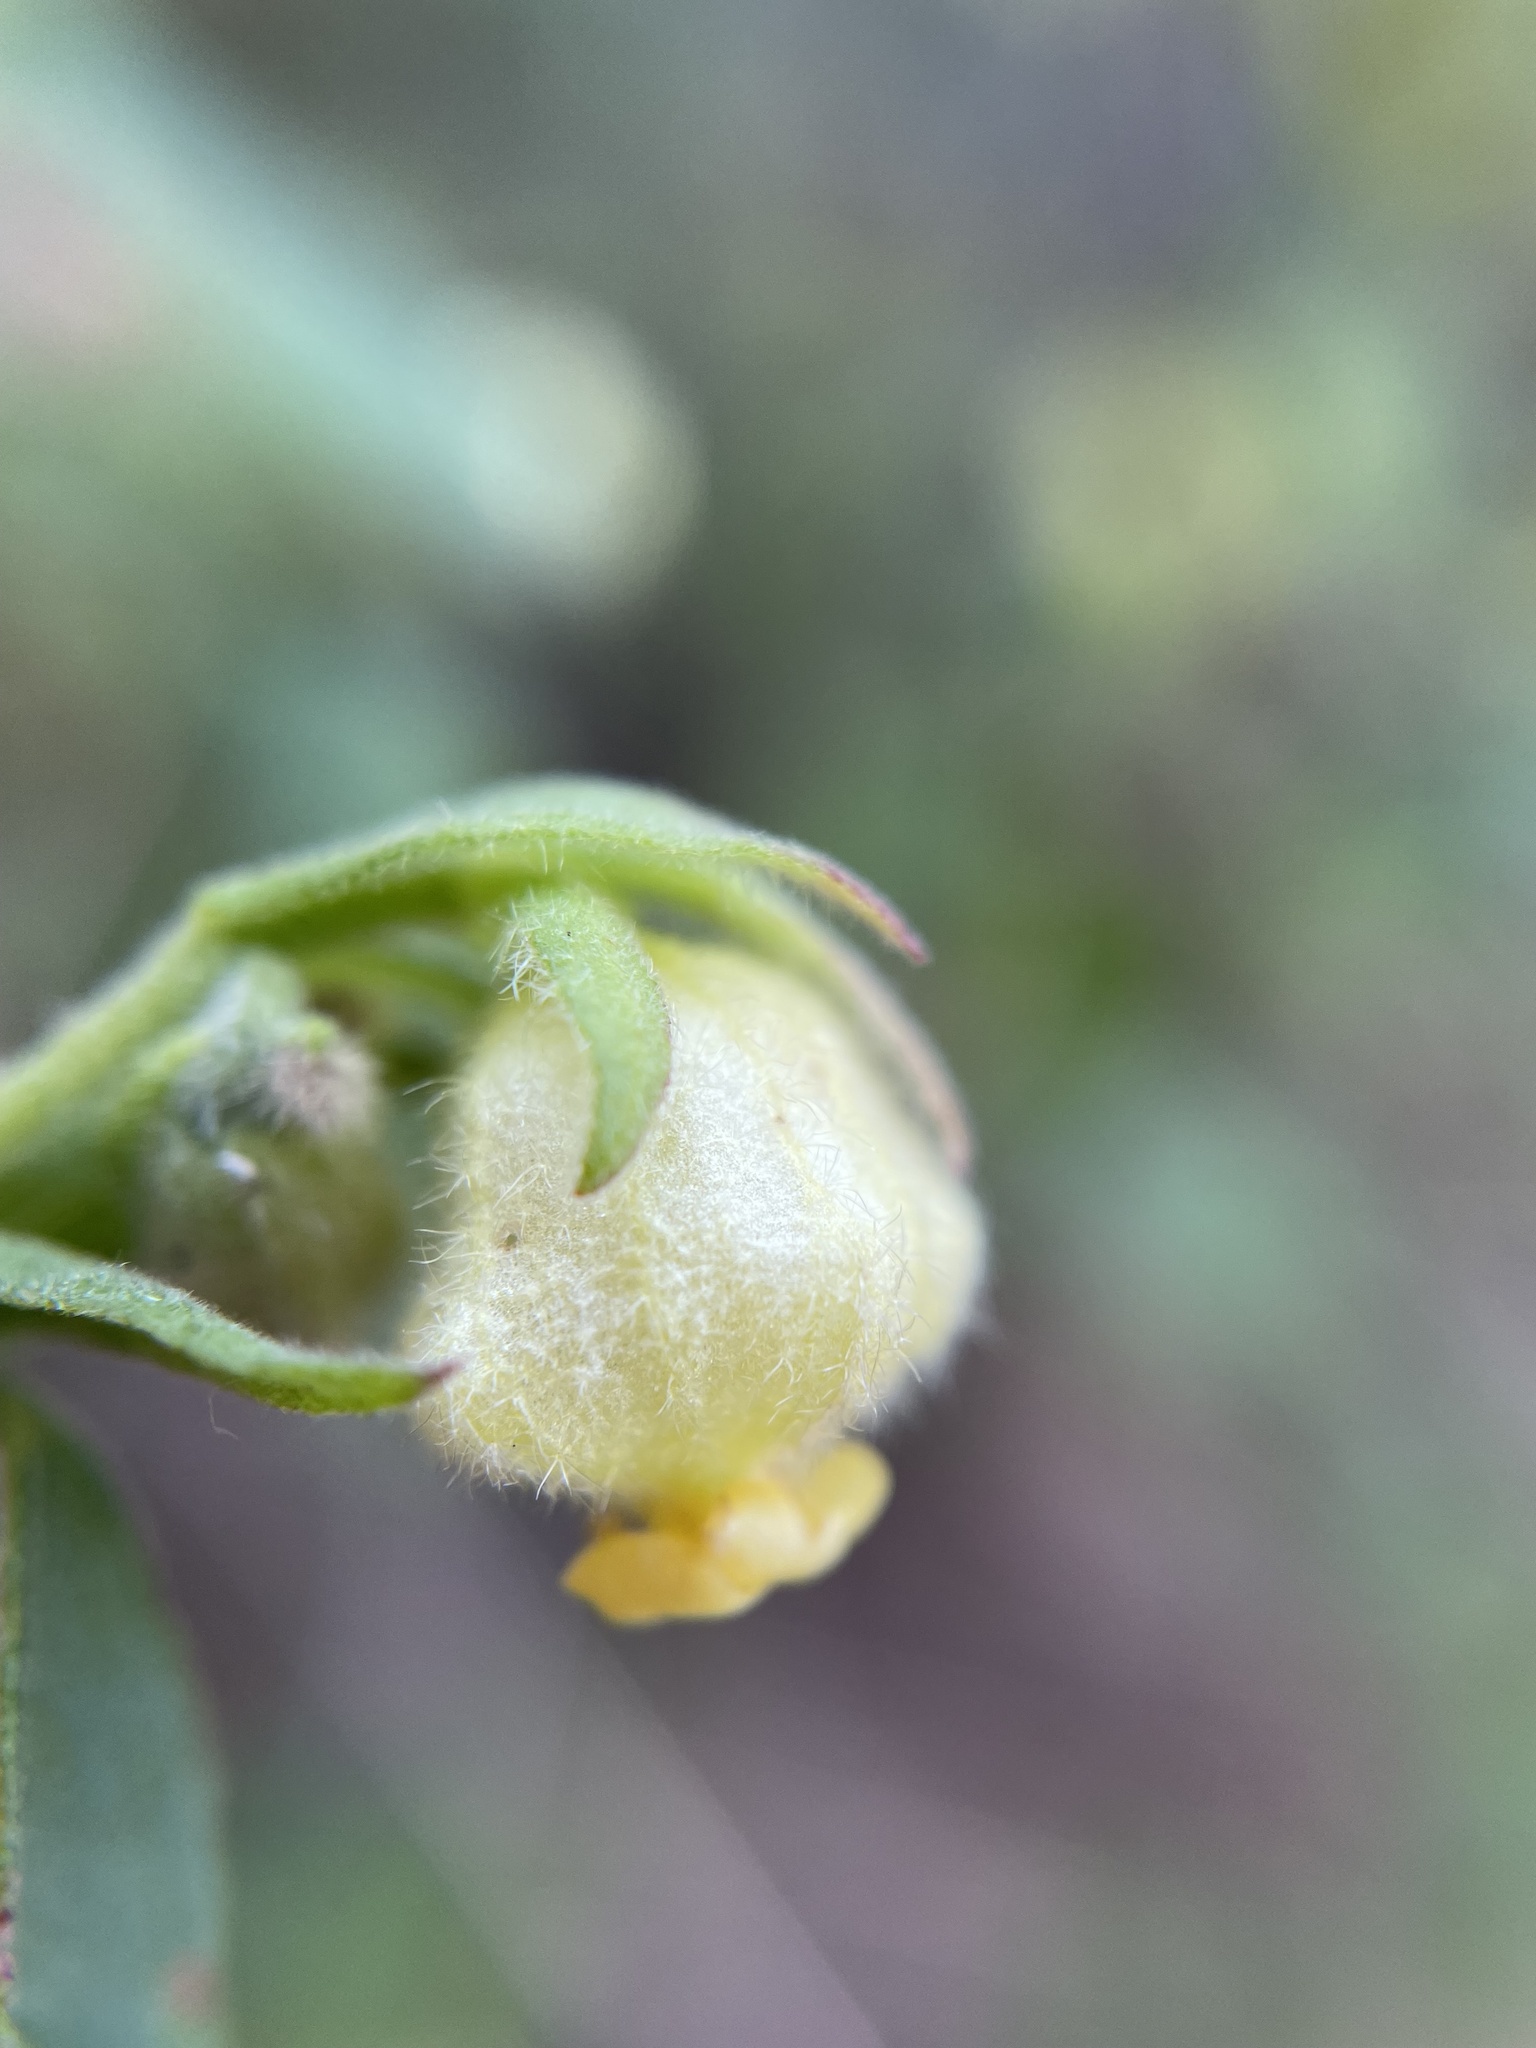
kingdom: Plantae
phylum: Tracheophyta
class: Magnoliopsida
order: Malvales
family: Malvaceae
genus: Hermannia
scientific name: Hermannia hyssopifolia
